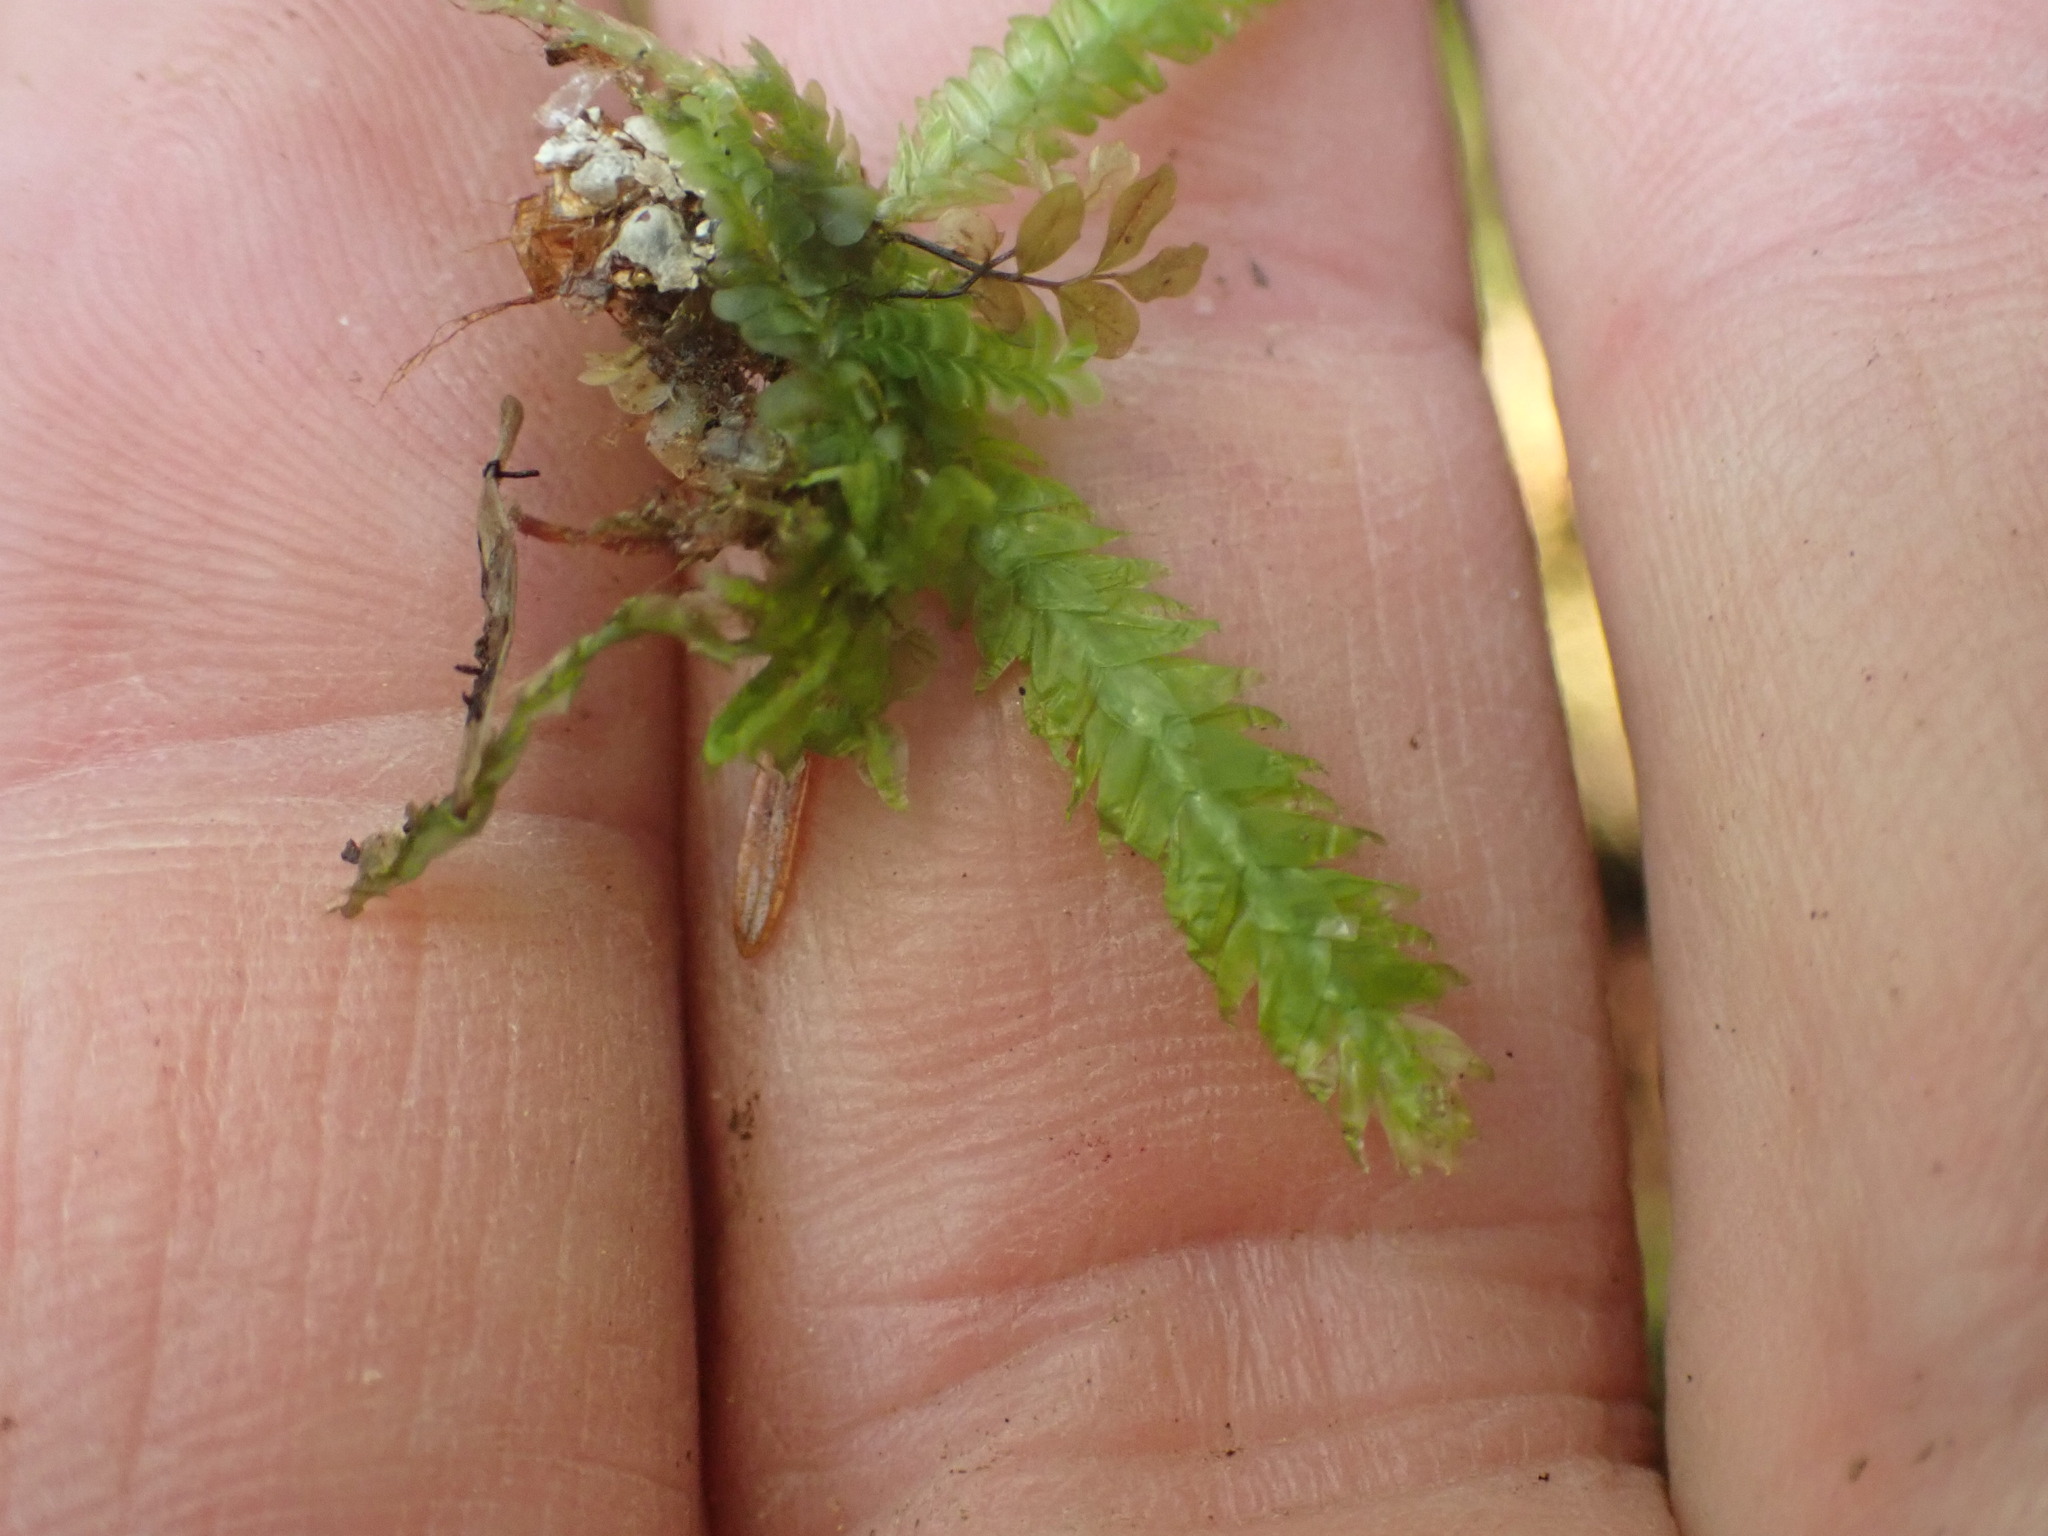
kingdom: Plantae
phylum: Bryophyta
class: Bryopsida
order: Hypnales
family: Plagiotheciaceae
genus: Plagiothecium
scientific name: Plagiothecium undulatum
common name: Waved silk-moss
